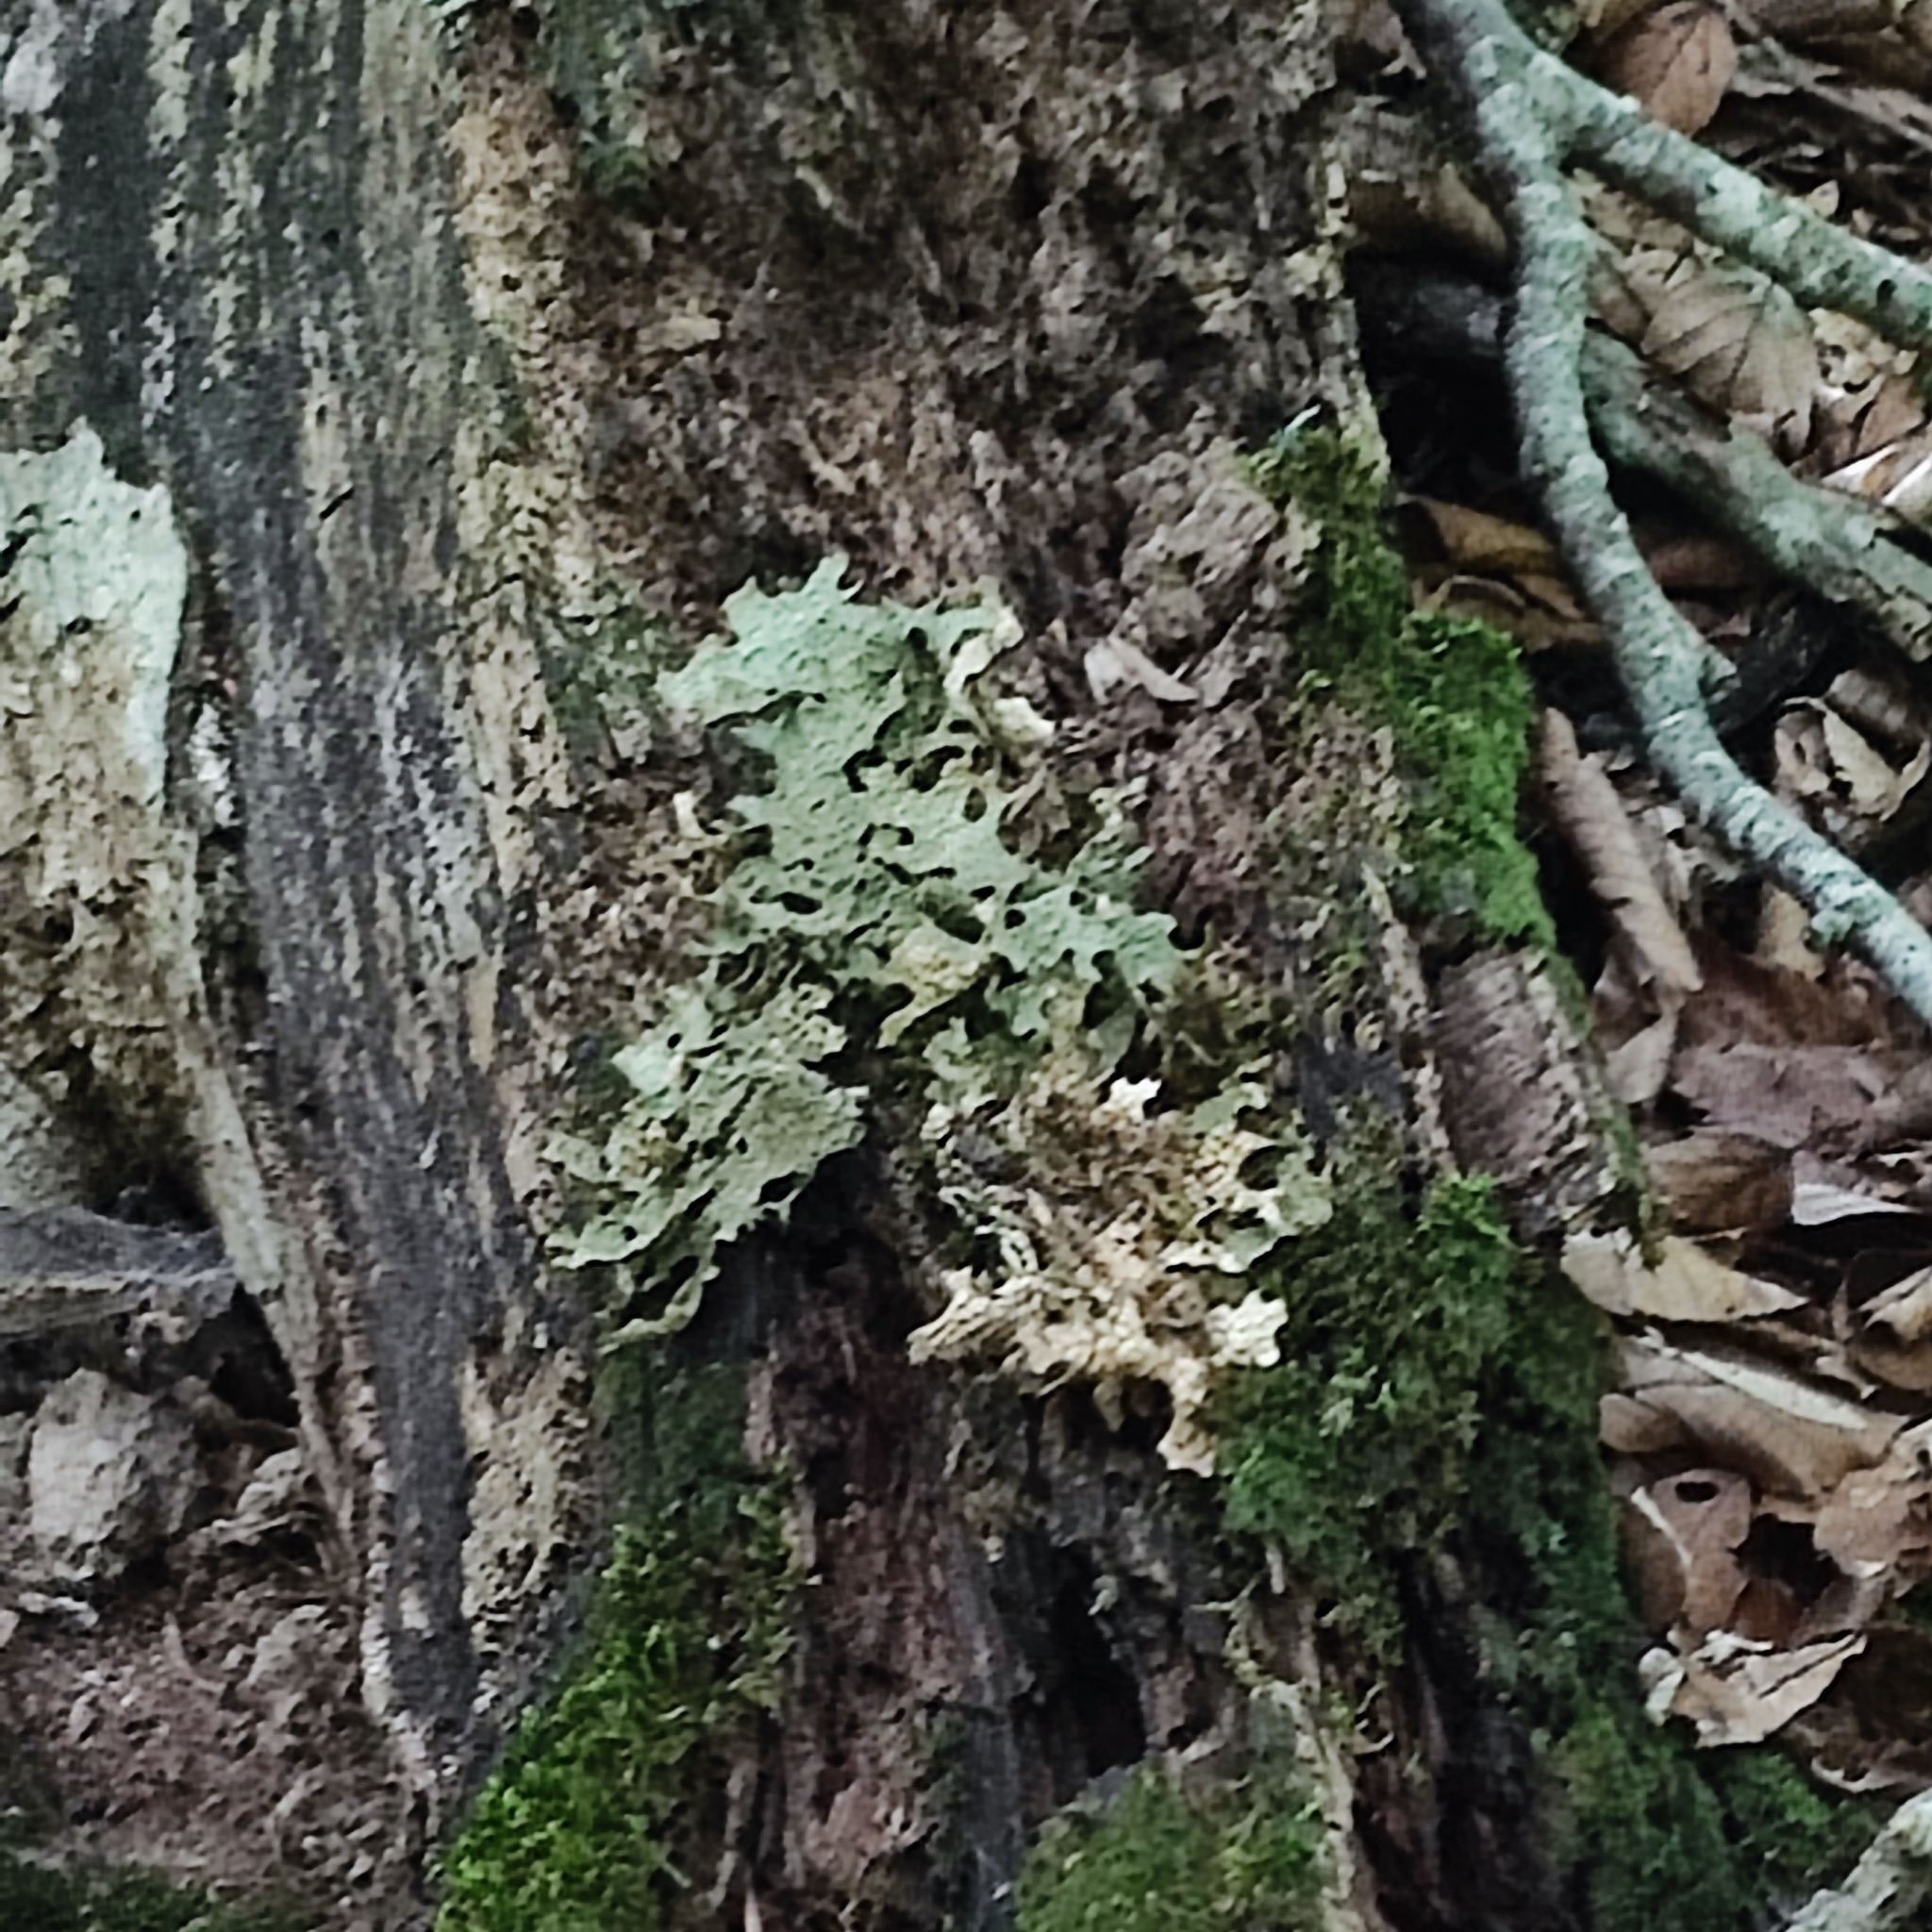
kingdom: Fungi
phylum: Ascomycota
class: Lecanoromycetes
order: Peltigerales
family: Lobariaceae
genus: Lobaria
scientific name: Lobaria pulmonaria
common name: Lungwort
